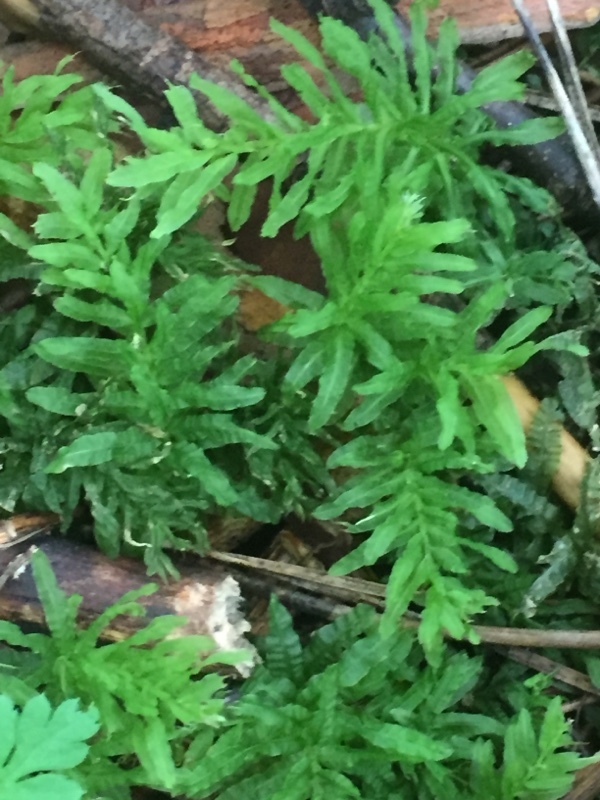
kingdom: Plantae
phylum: Bryophyta
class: Bryopsida
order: Bryales
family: Mniaceae
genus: Plagiomnium
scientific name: Plagiomnium undulatum
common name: Hart's-tongue thyme-moss
